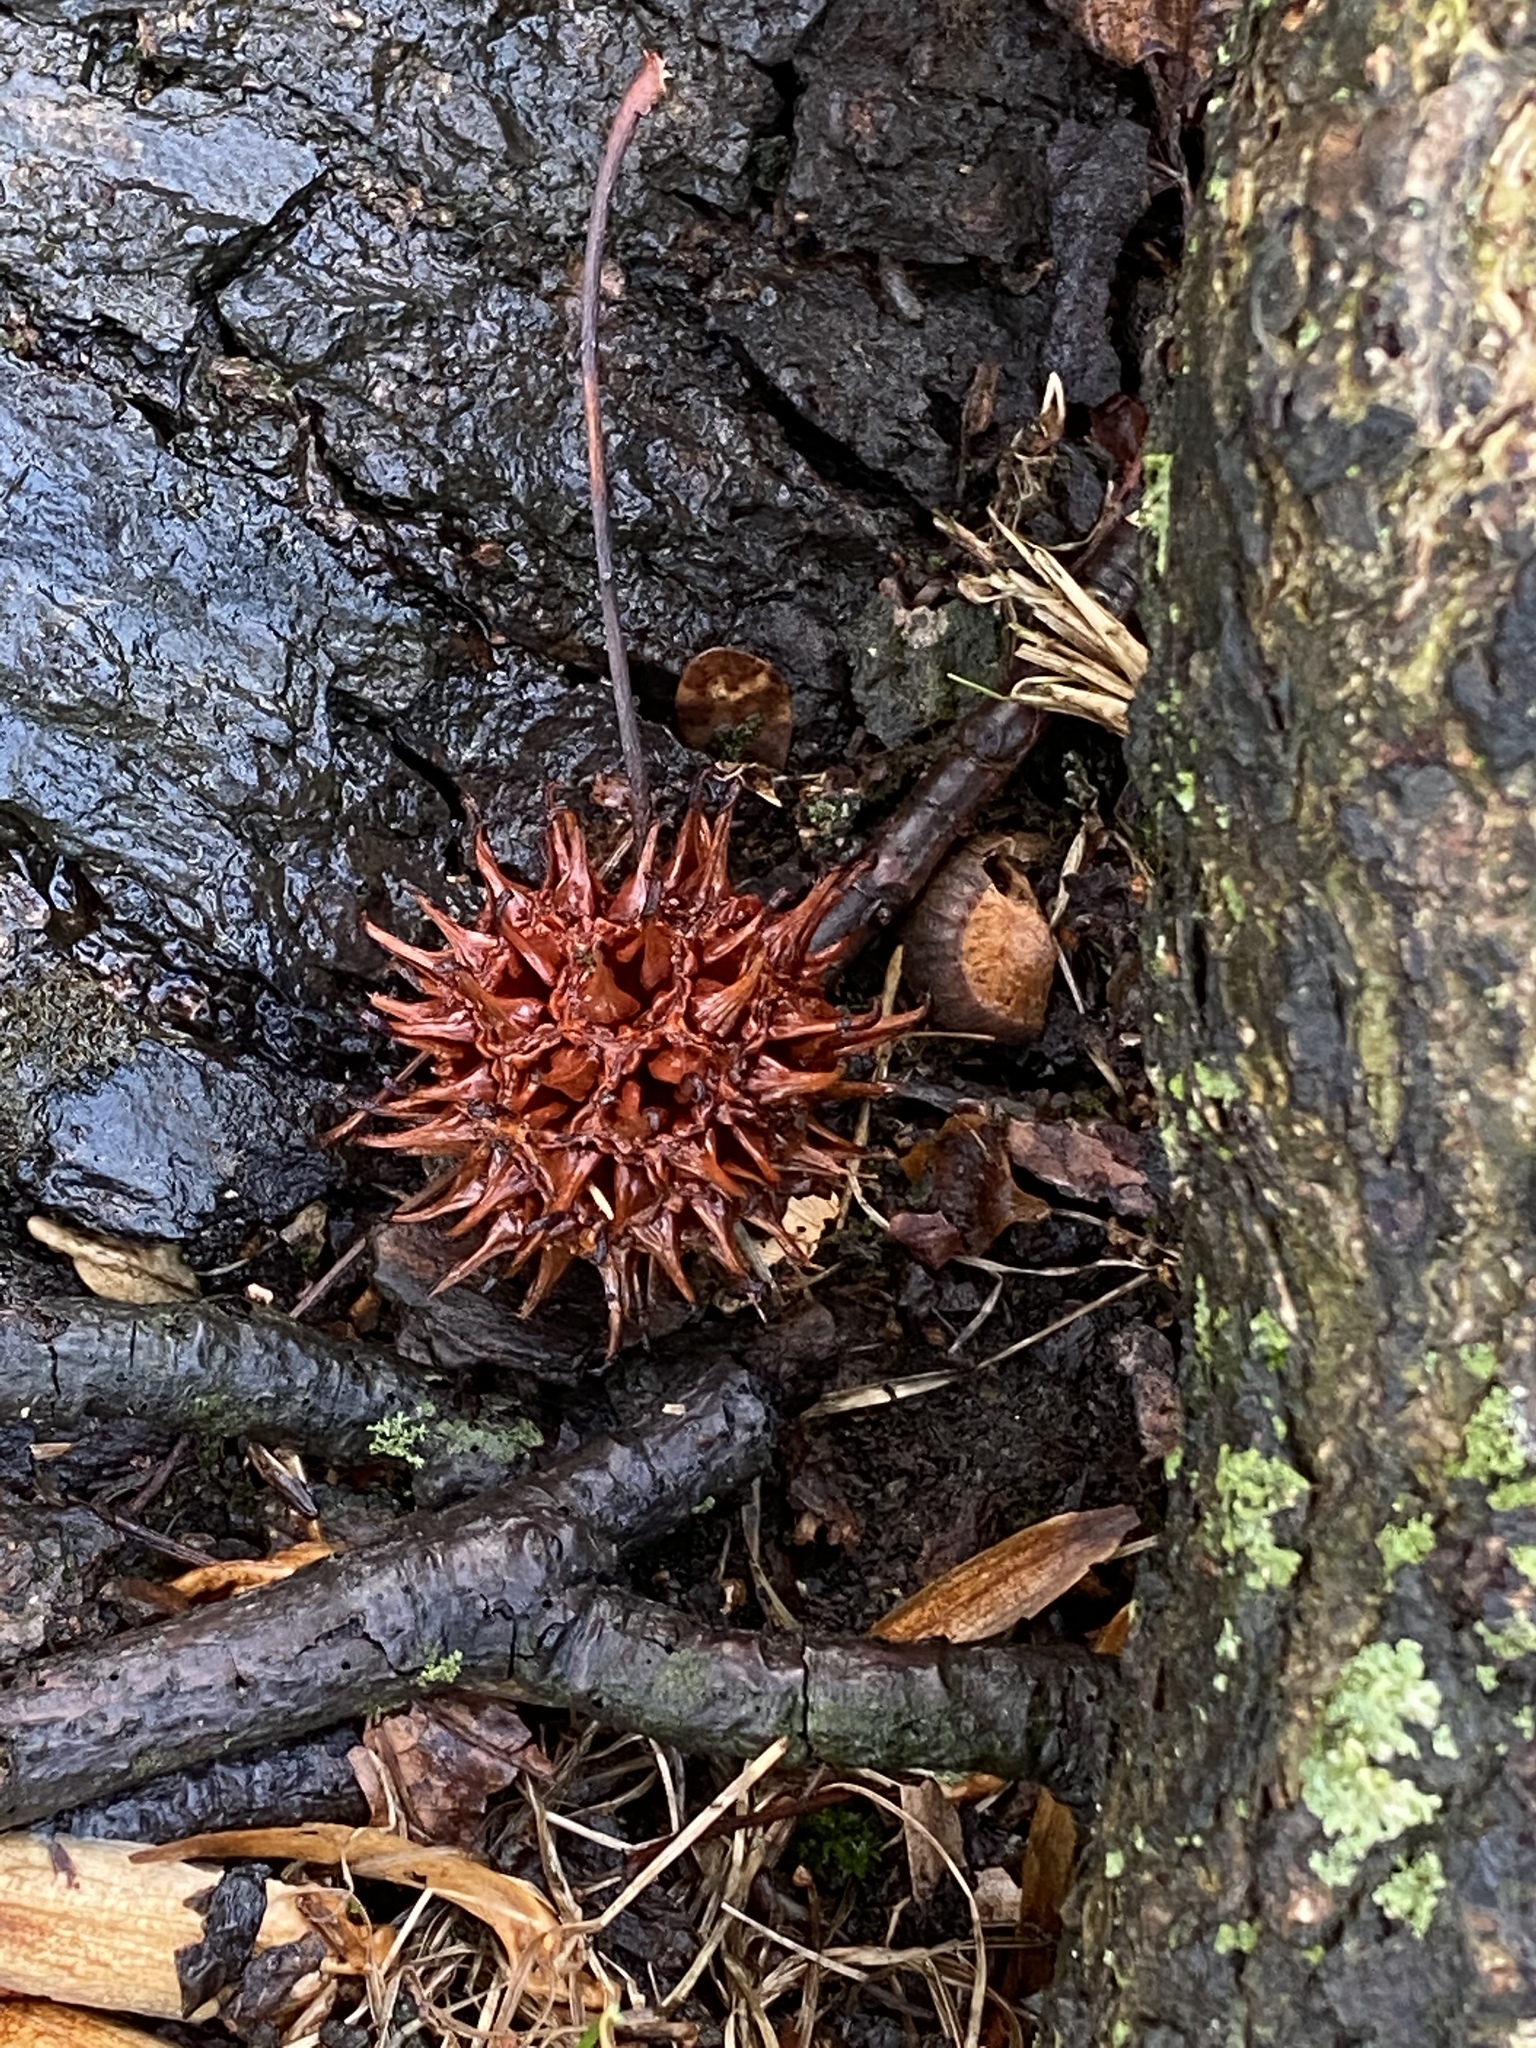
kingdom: Plantae
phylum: Tracheophyta
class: Magnoliopsida
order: Saxifragales
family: Altingiaceae
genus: Liquidambar
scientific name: Liquidambar styraciflua
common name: Sweet gum
